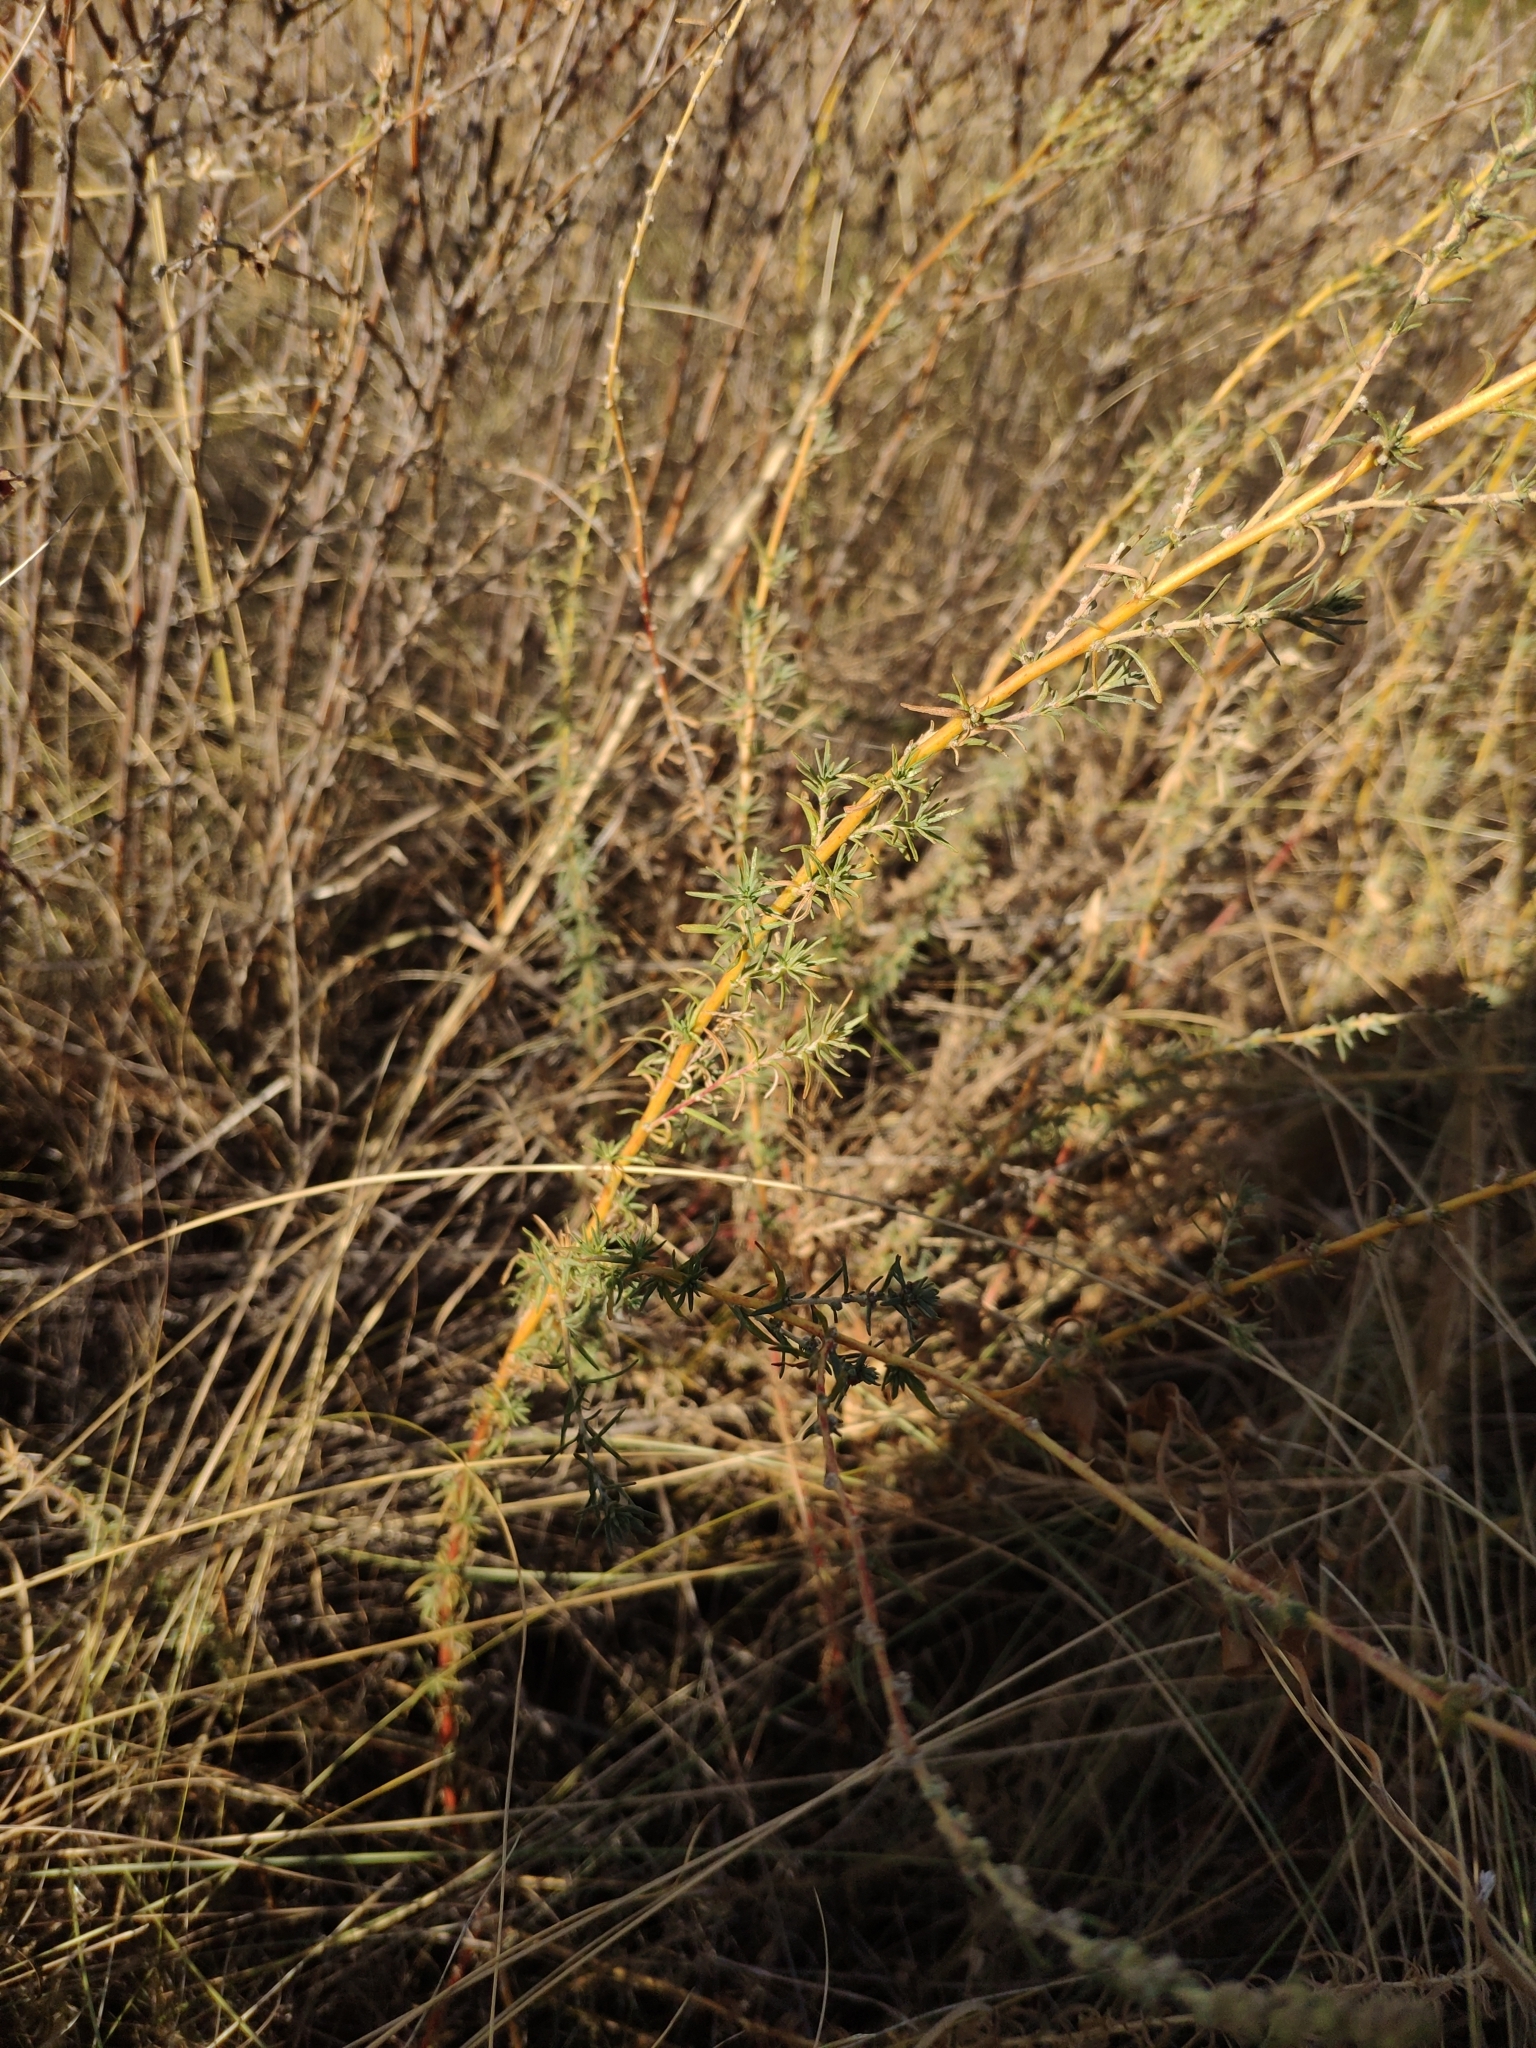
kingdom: Plantae
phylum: Tracheophyta
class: Magnoliopsida
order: Caryophyllales
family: Amaranthaceae
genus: Bassia
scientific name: Bassia prostrata
